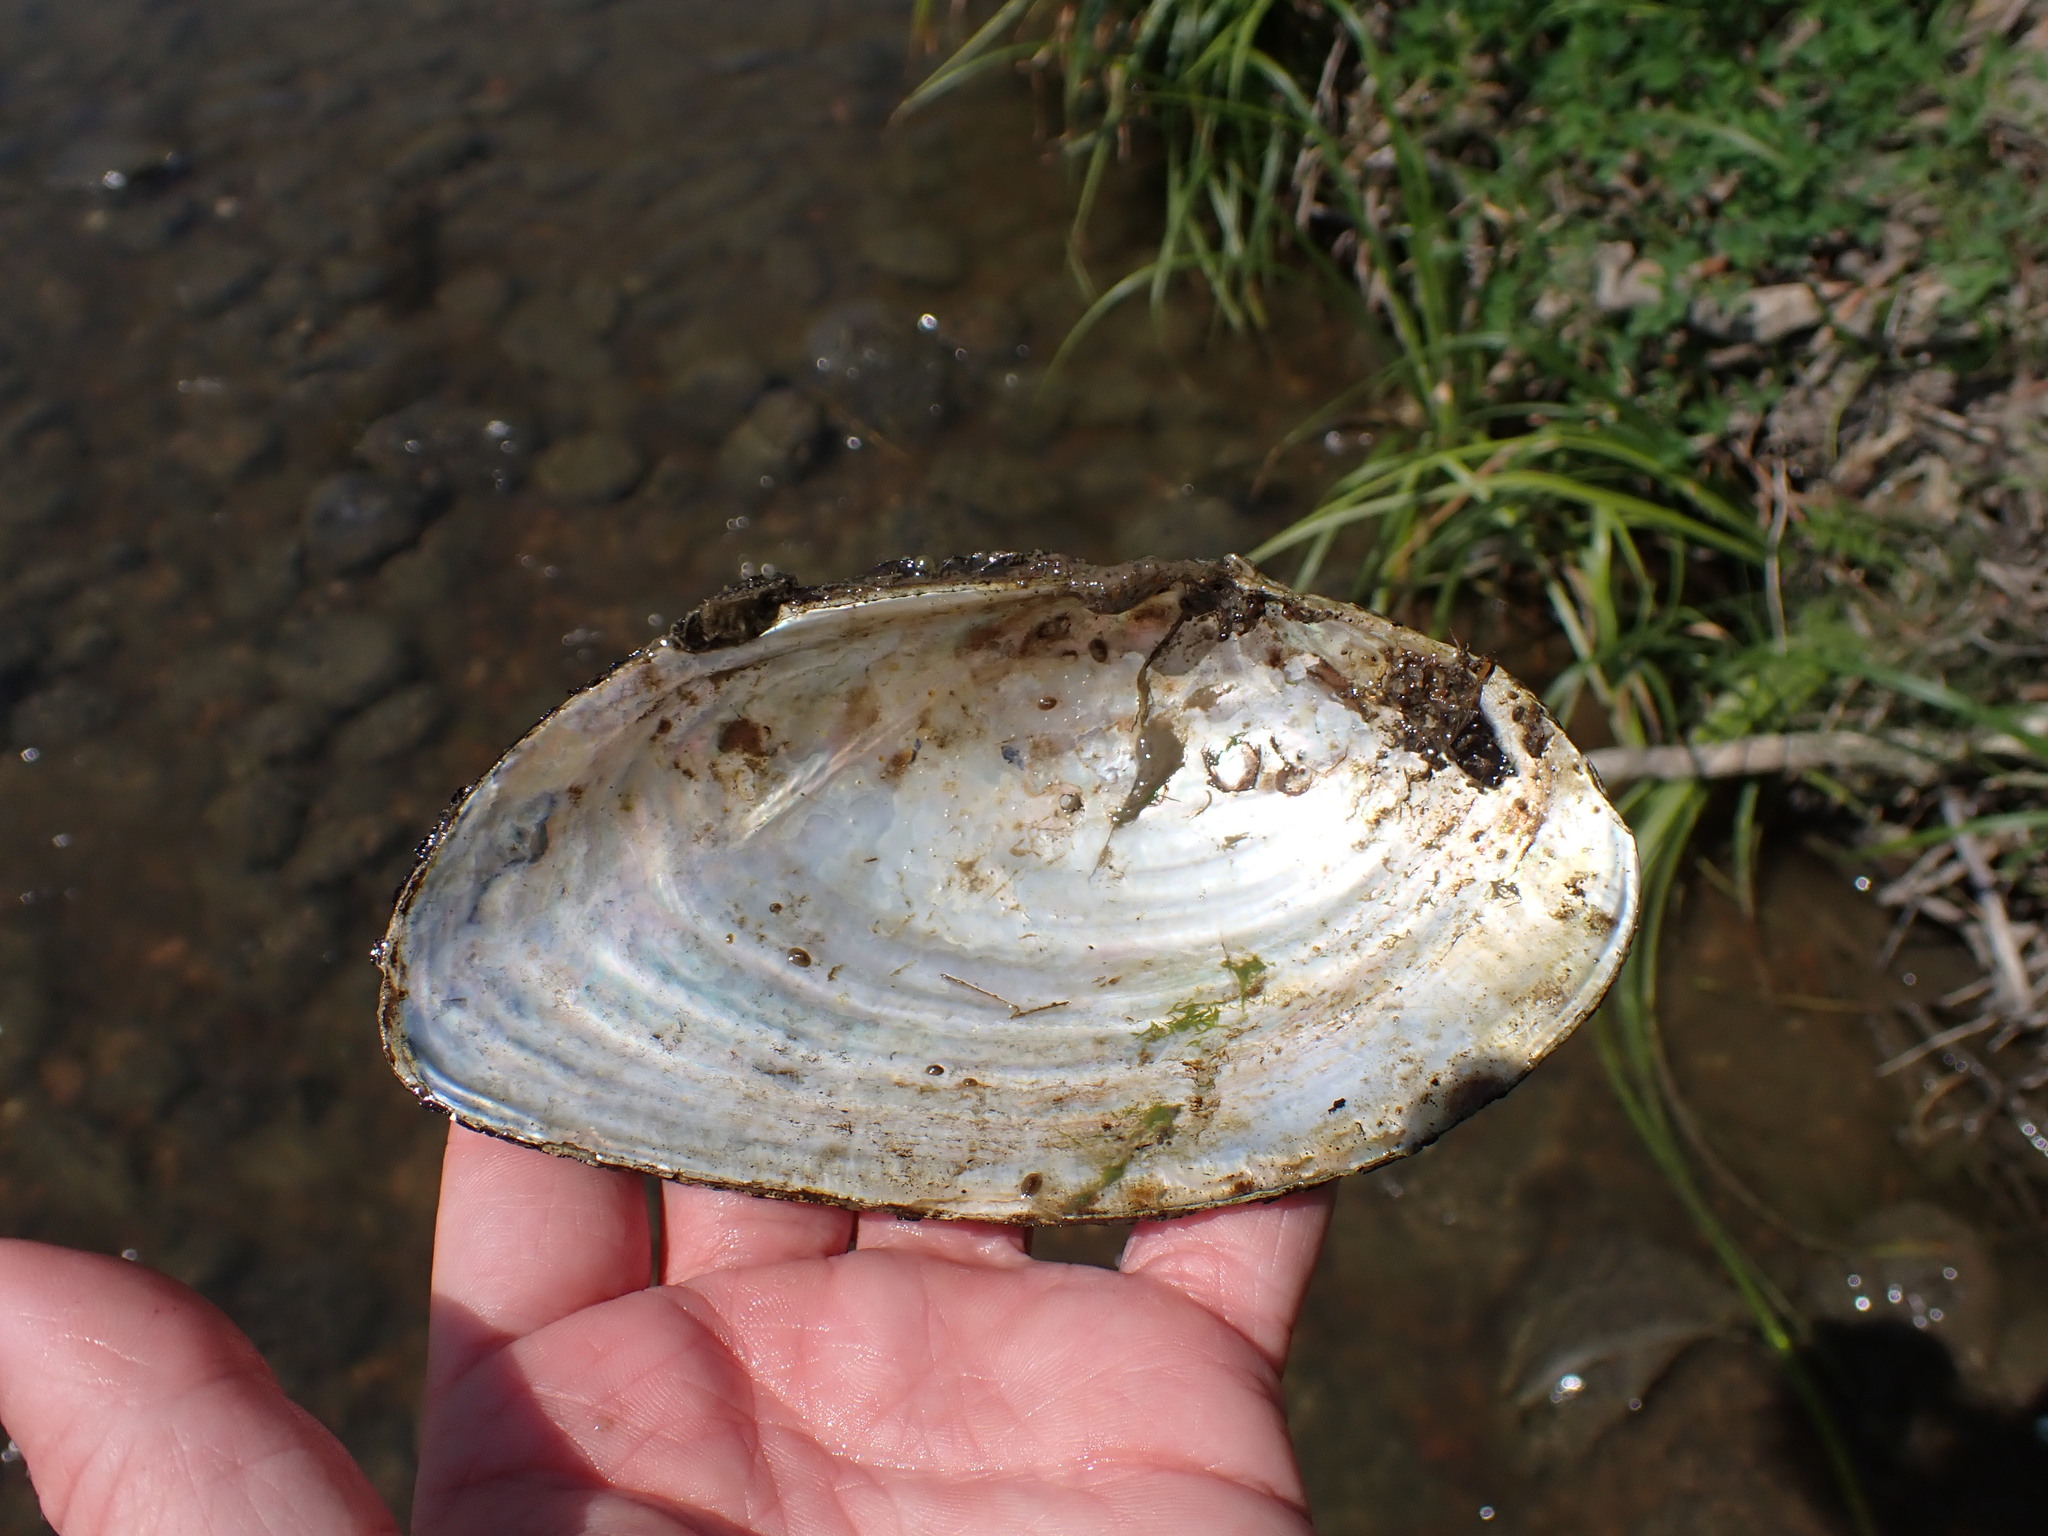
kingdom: Animalia
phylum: Mollusca
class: Bivalvia
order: Unionida
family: Unionidae
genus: Pyganodon
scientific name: Pyganodon grandis
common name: Giant floater
